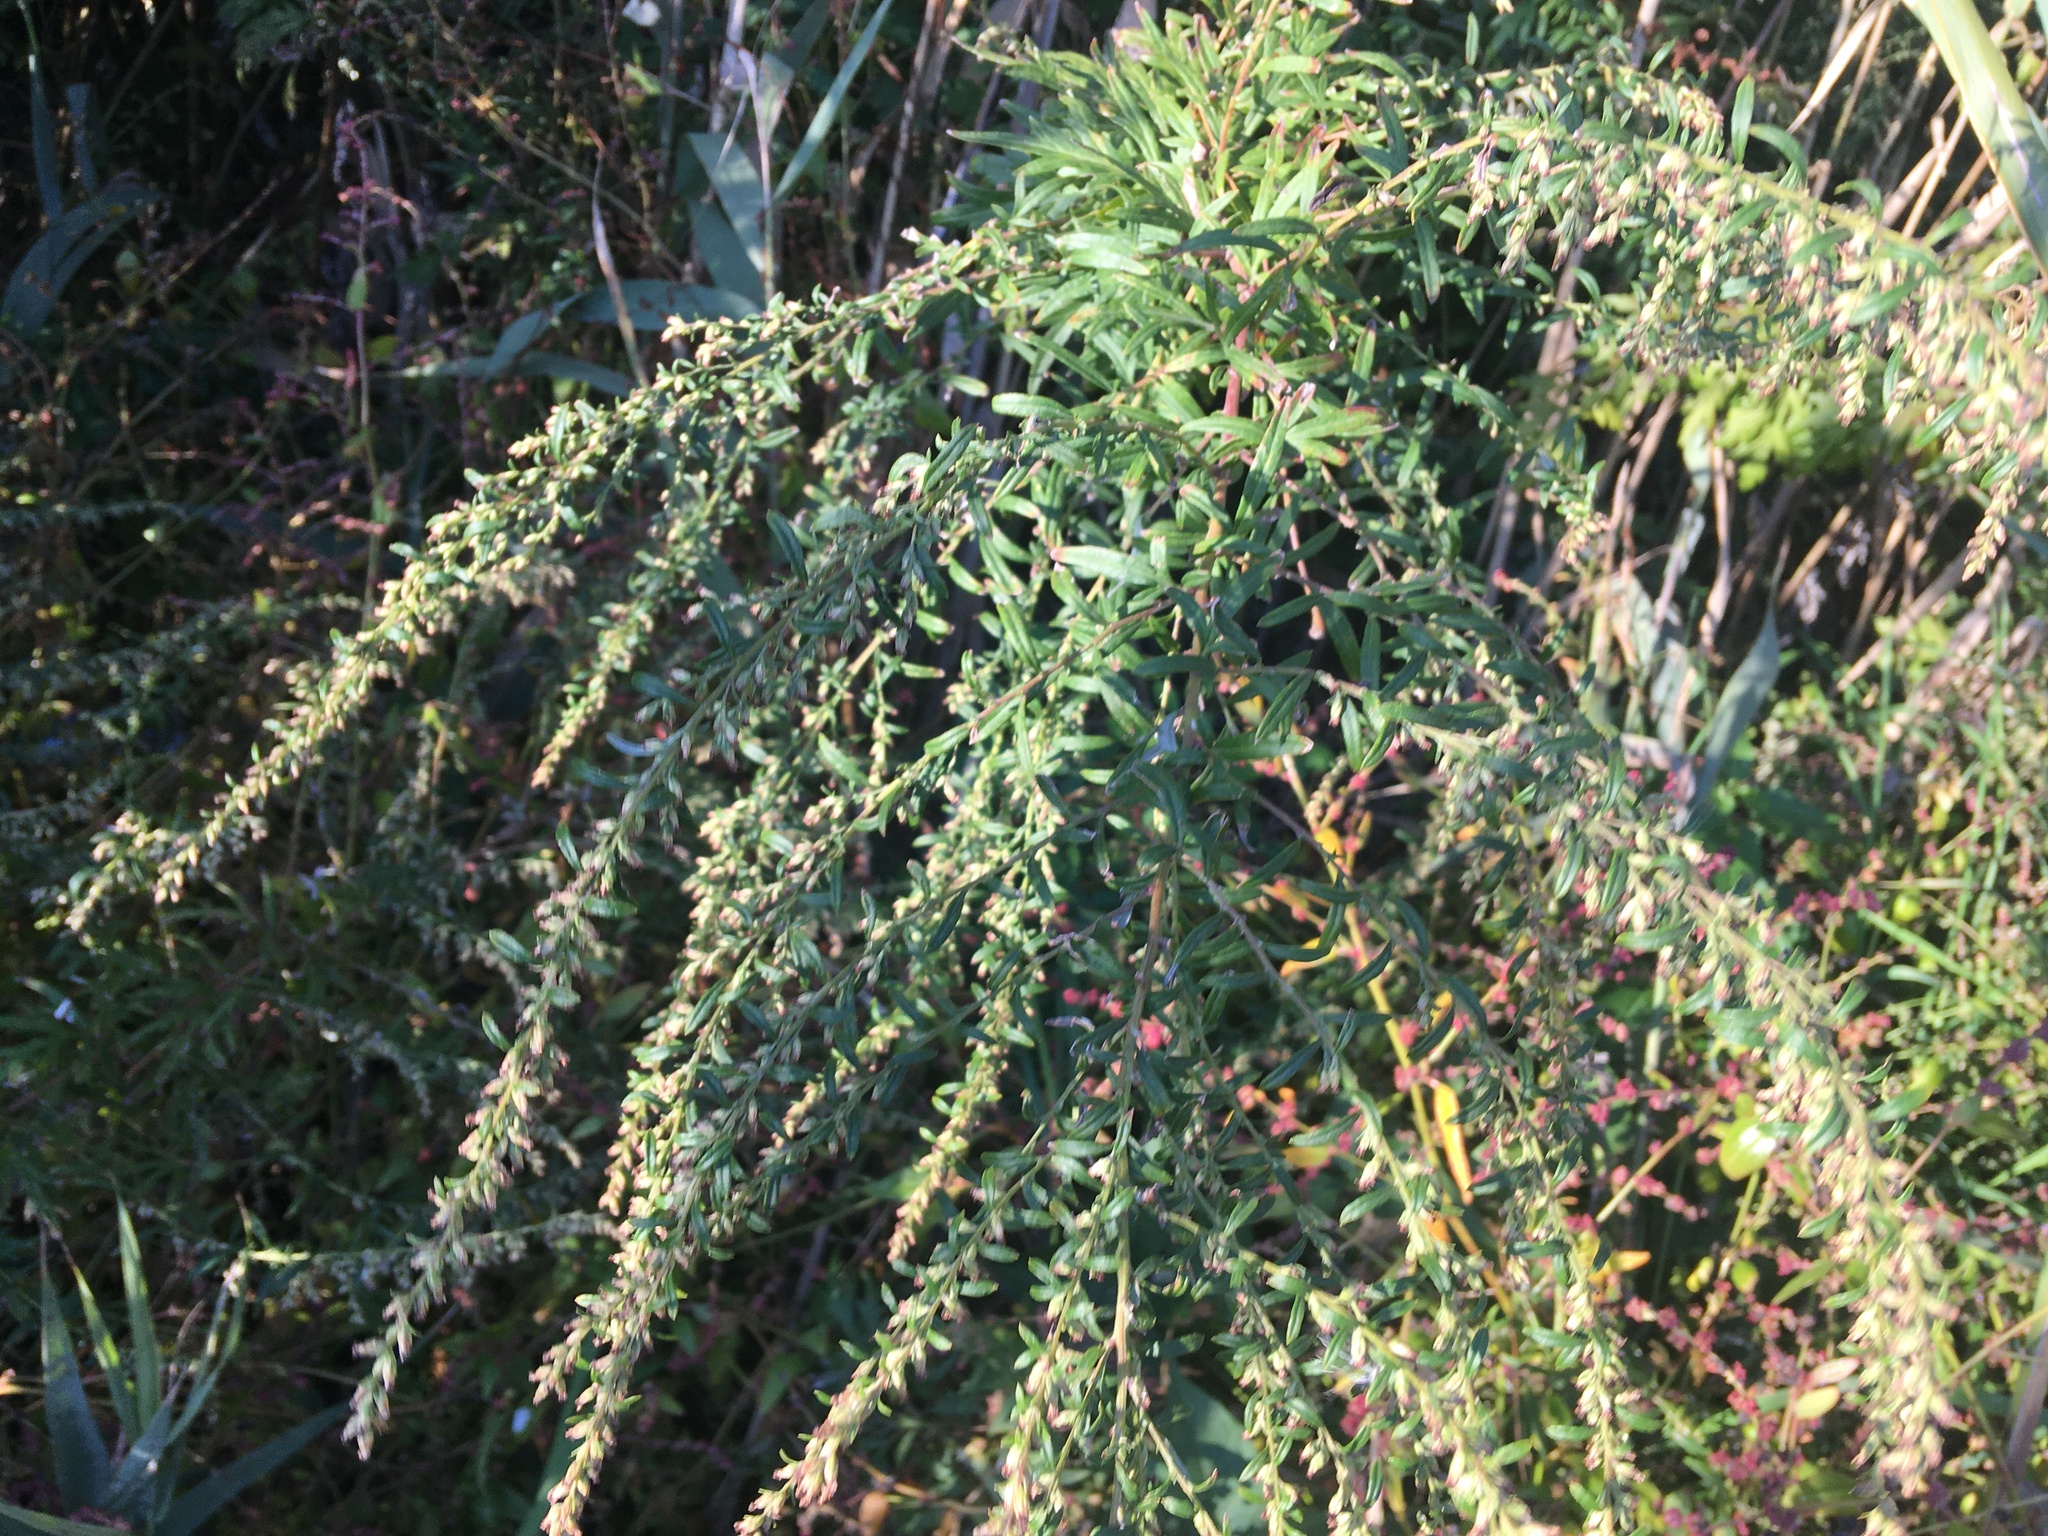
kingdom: Plantae
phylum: Tracheophyta
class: Magnoliopsida
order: Asterales
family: Asteraceae
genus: Artemisia
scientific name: Artemisia vulgaris
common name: Mugwort
